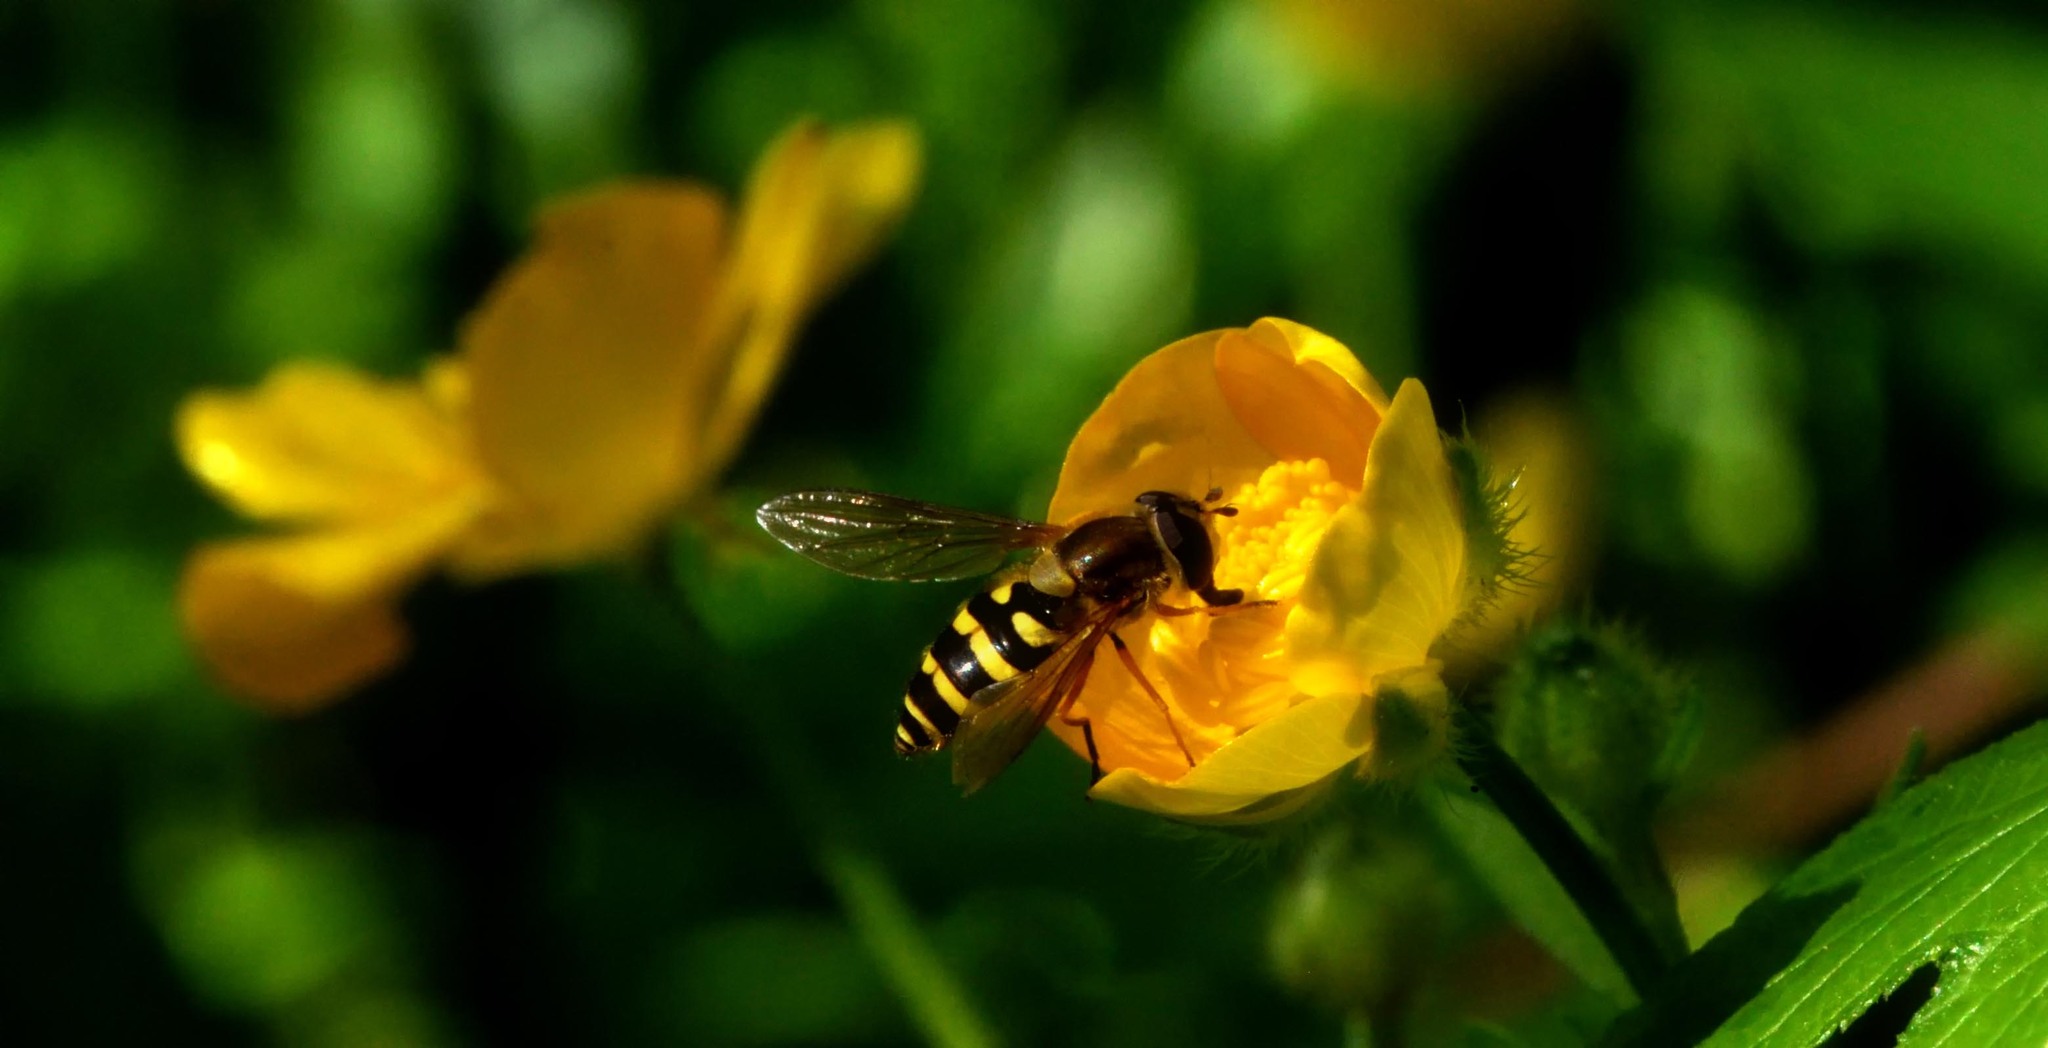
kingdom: Animalia
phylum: Arthropoda
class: Insecta
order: Diptera
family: Syrphidae
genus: Syrphus
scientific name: Syrphus ribesii
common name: Common flower fly
